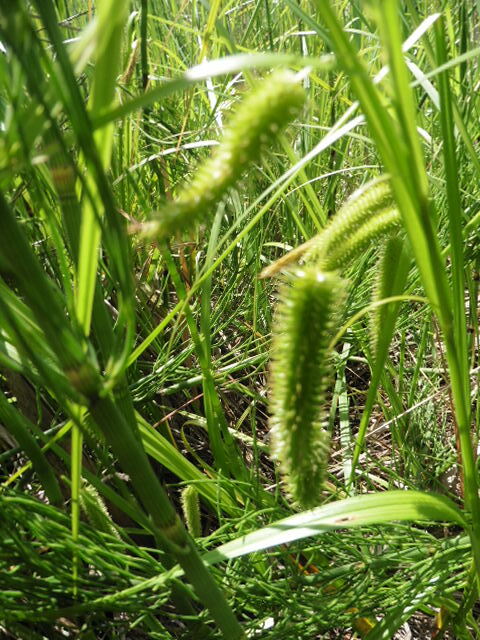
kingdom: Plantae
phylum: Tracheophyta
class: Liliopsida
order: Poales
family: Cyperaceae
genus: Carex
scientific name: Carex pseudocyperus
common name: Cyperus sedge
